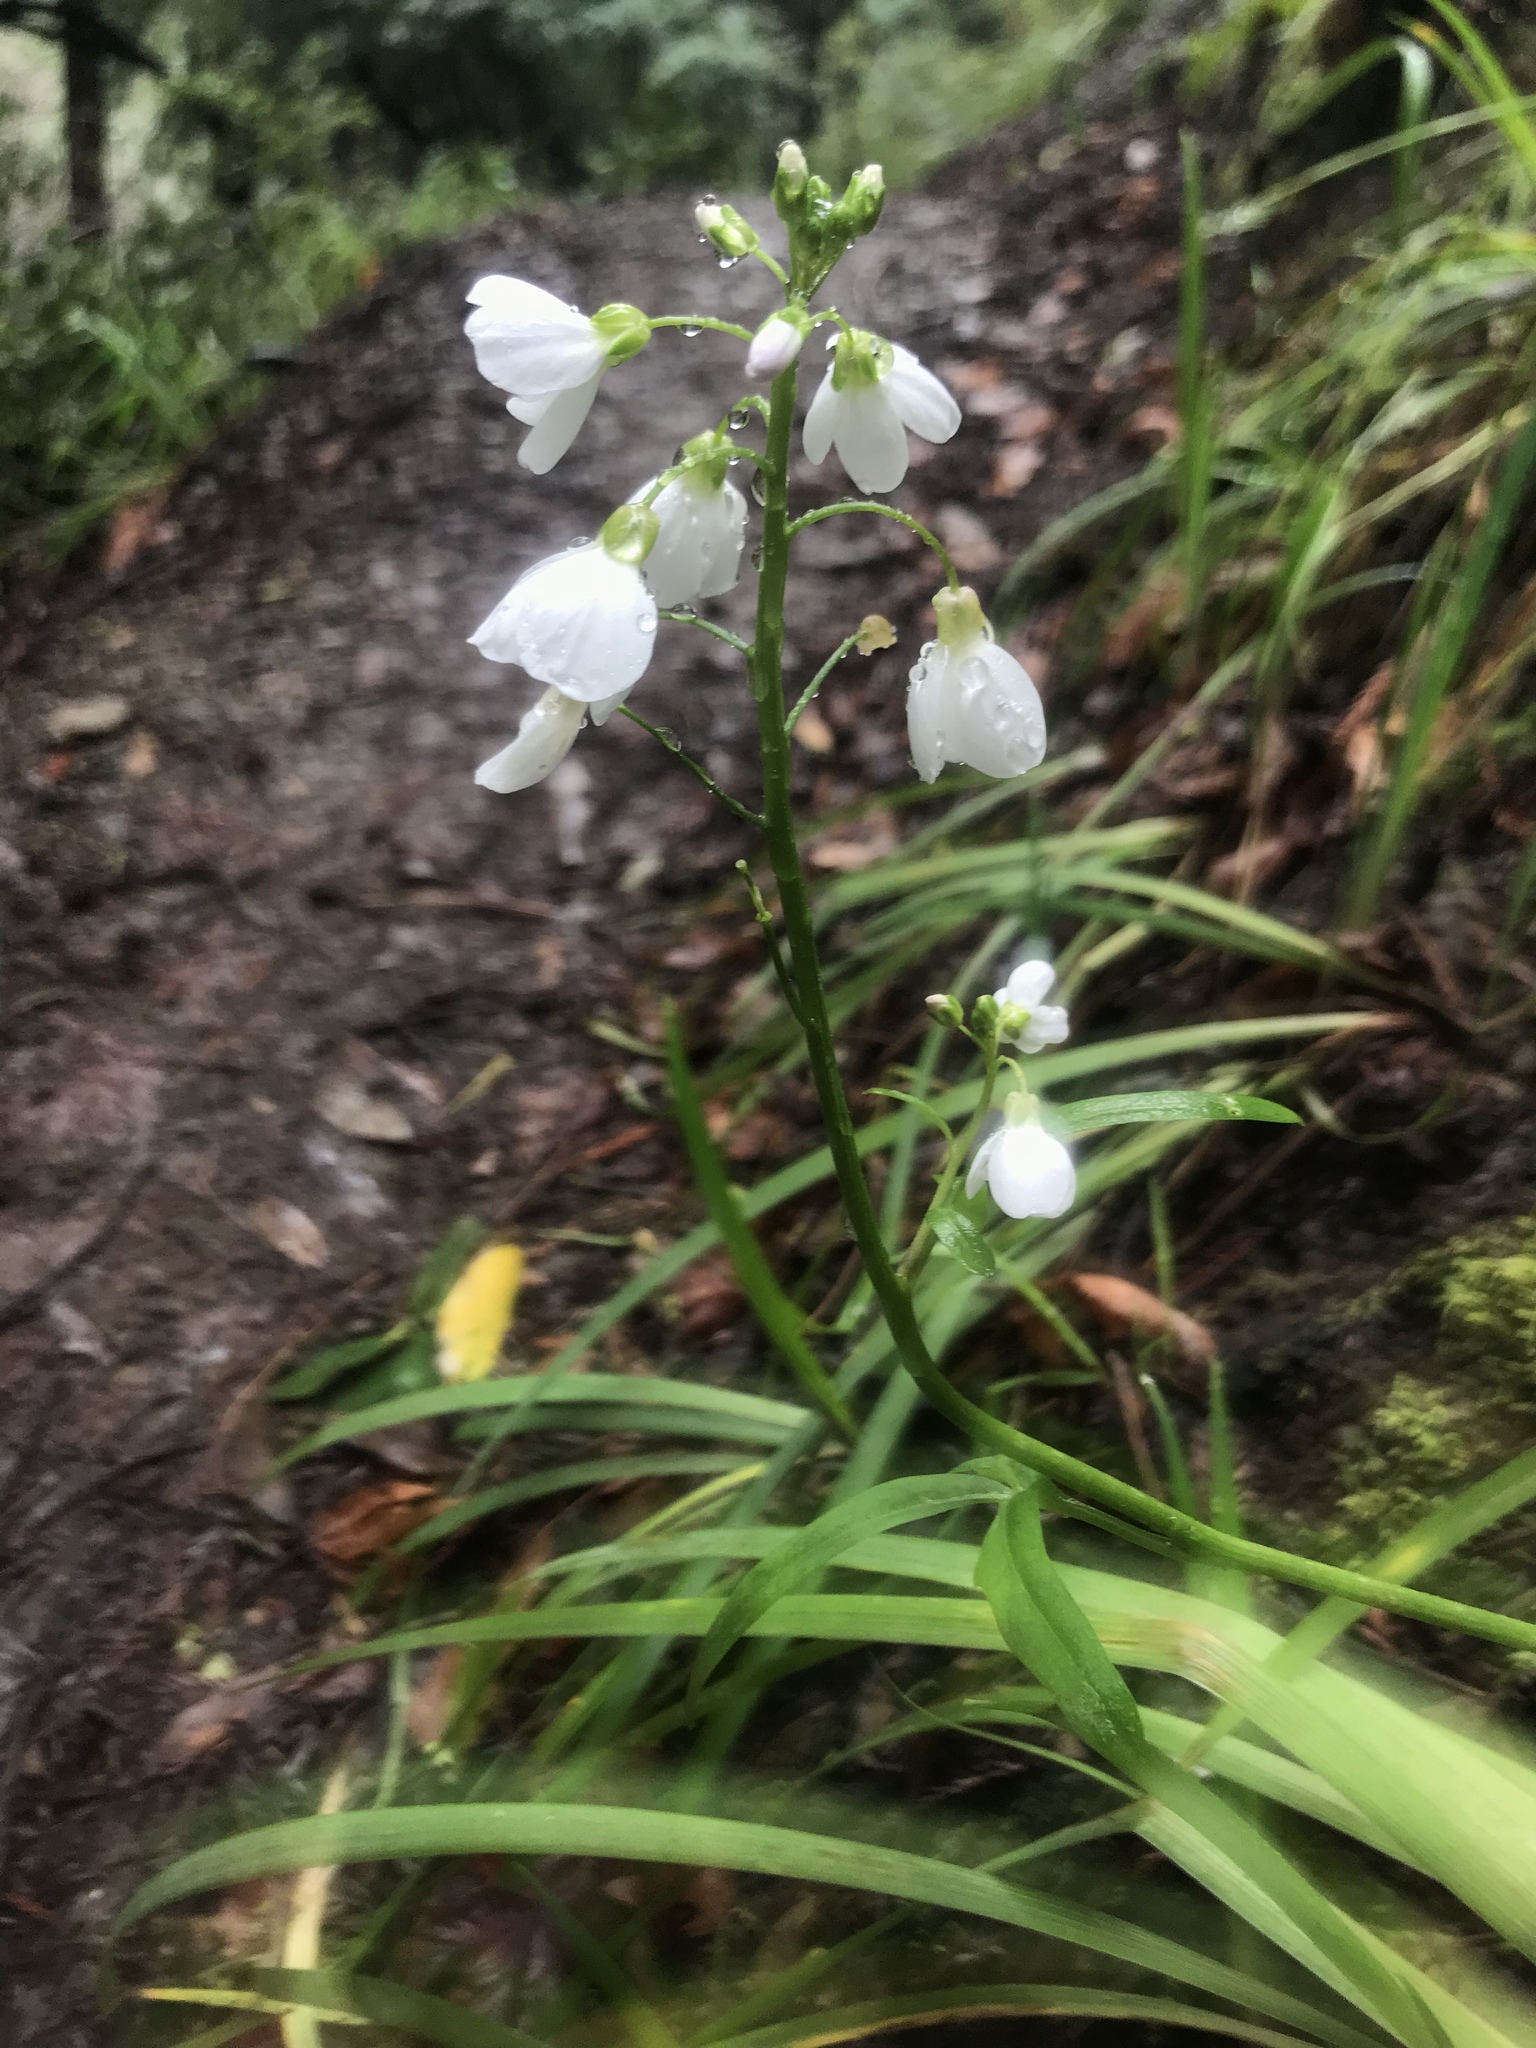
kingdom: Plantae
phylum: Tracheophyta
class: Magnoliopsida
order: Brassicales
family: Brassicaceae
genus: Cardamine
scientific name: Cardamine californica
